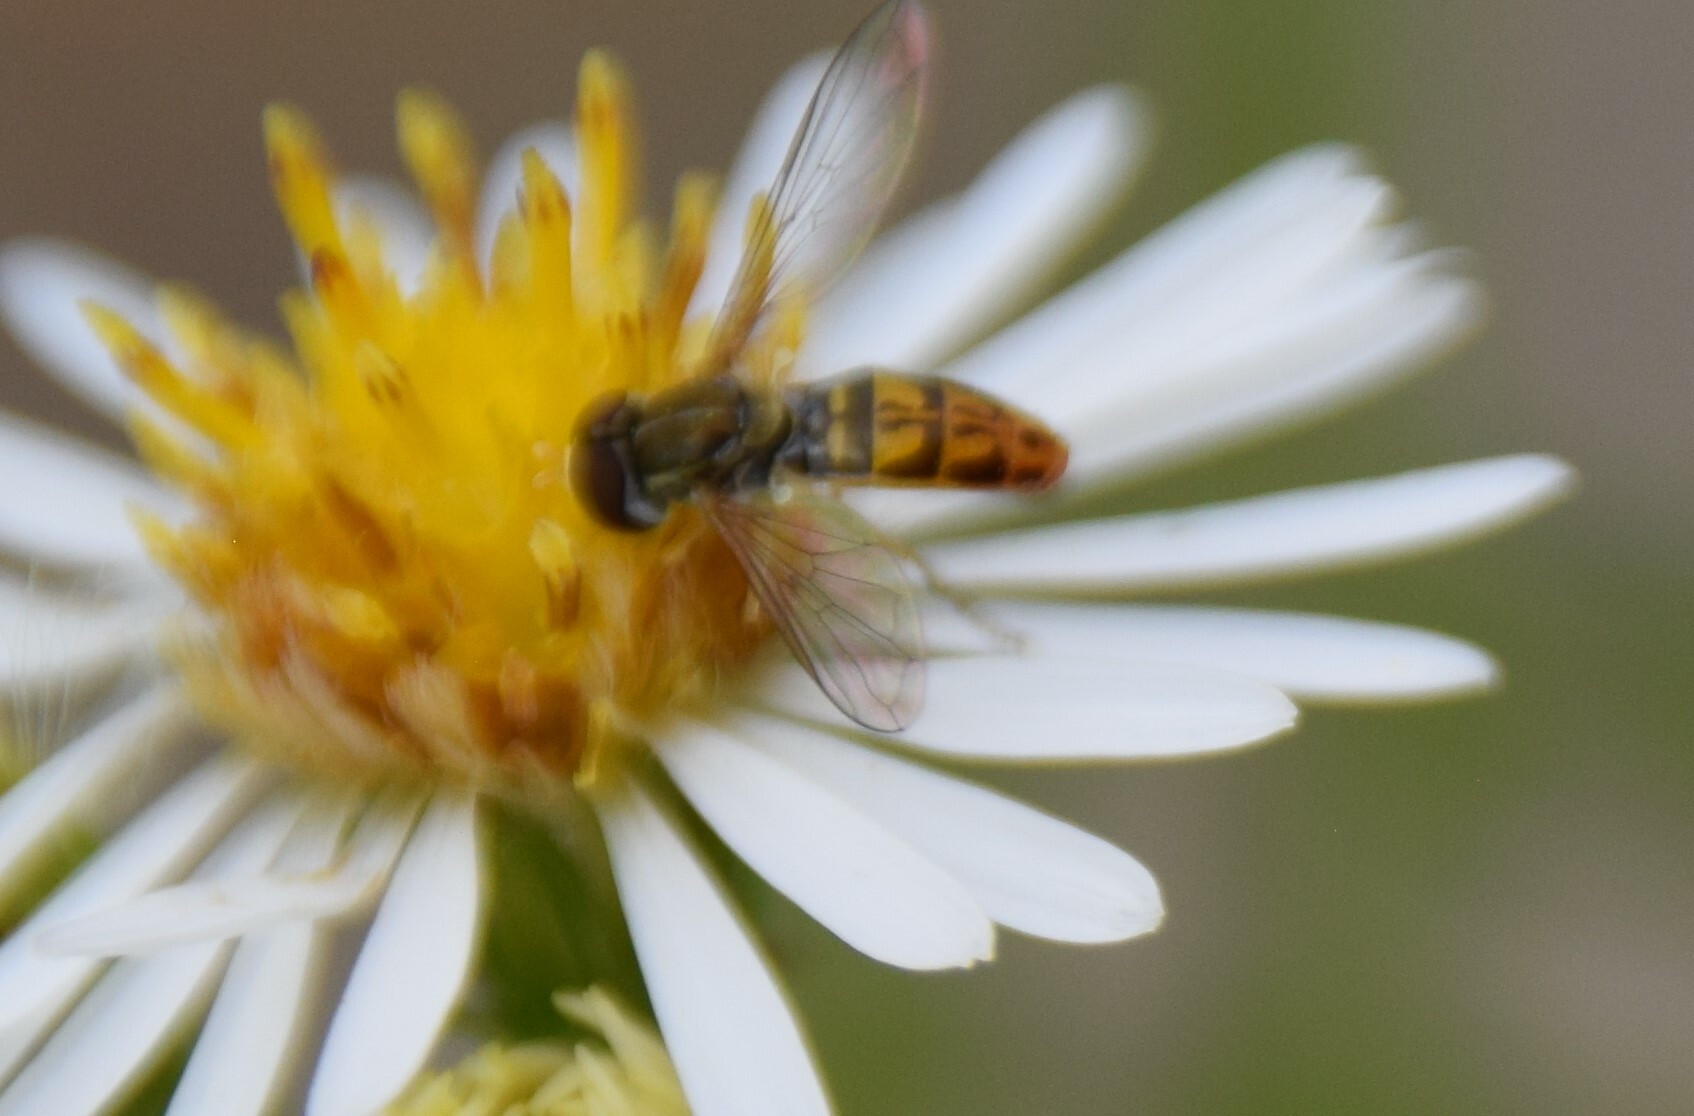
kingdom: Animalia
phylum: Arthropoda
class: Insecta
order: Diptera
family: Syrphidae
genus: Toxomerus
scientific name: Toxomerus marginatus
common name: Syrphid fly
